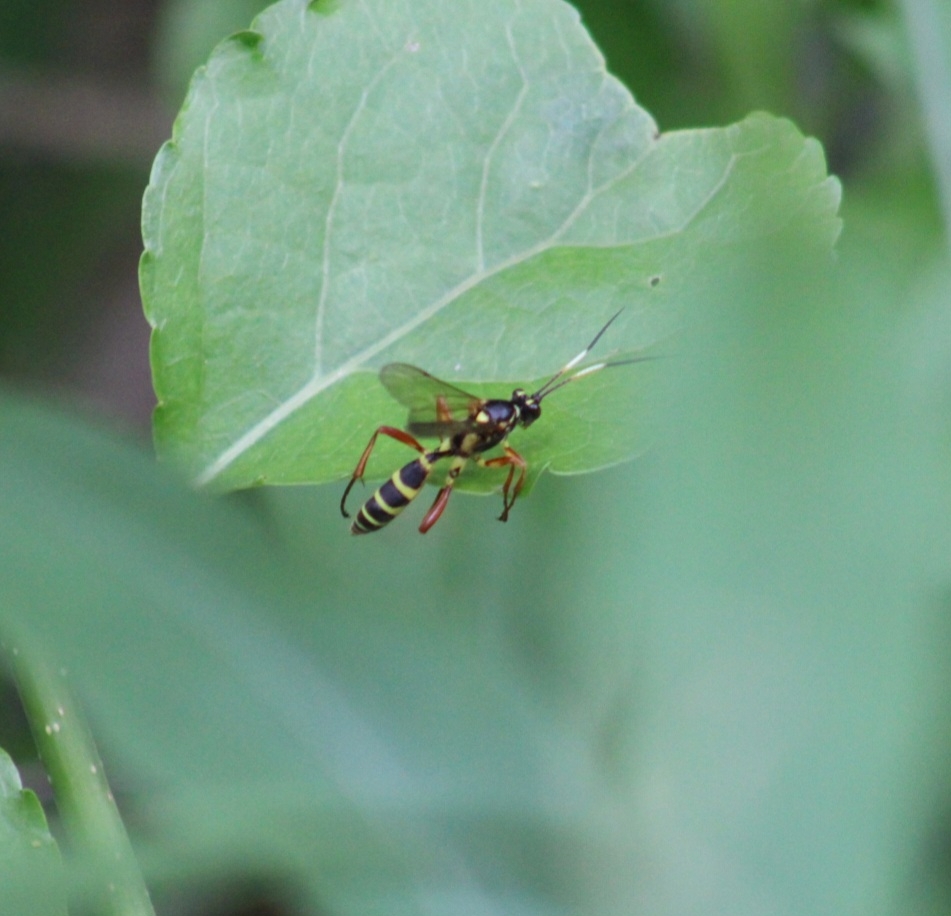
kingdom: Animalia
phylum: Arthropoda
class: Insecta
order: Hymenoptera
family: Ichneumonidae
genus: Setanta
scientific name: Setanta compta
